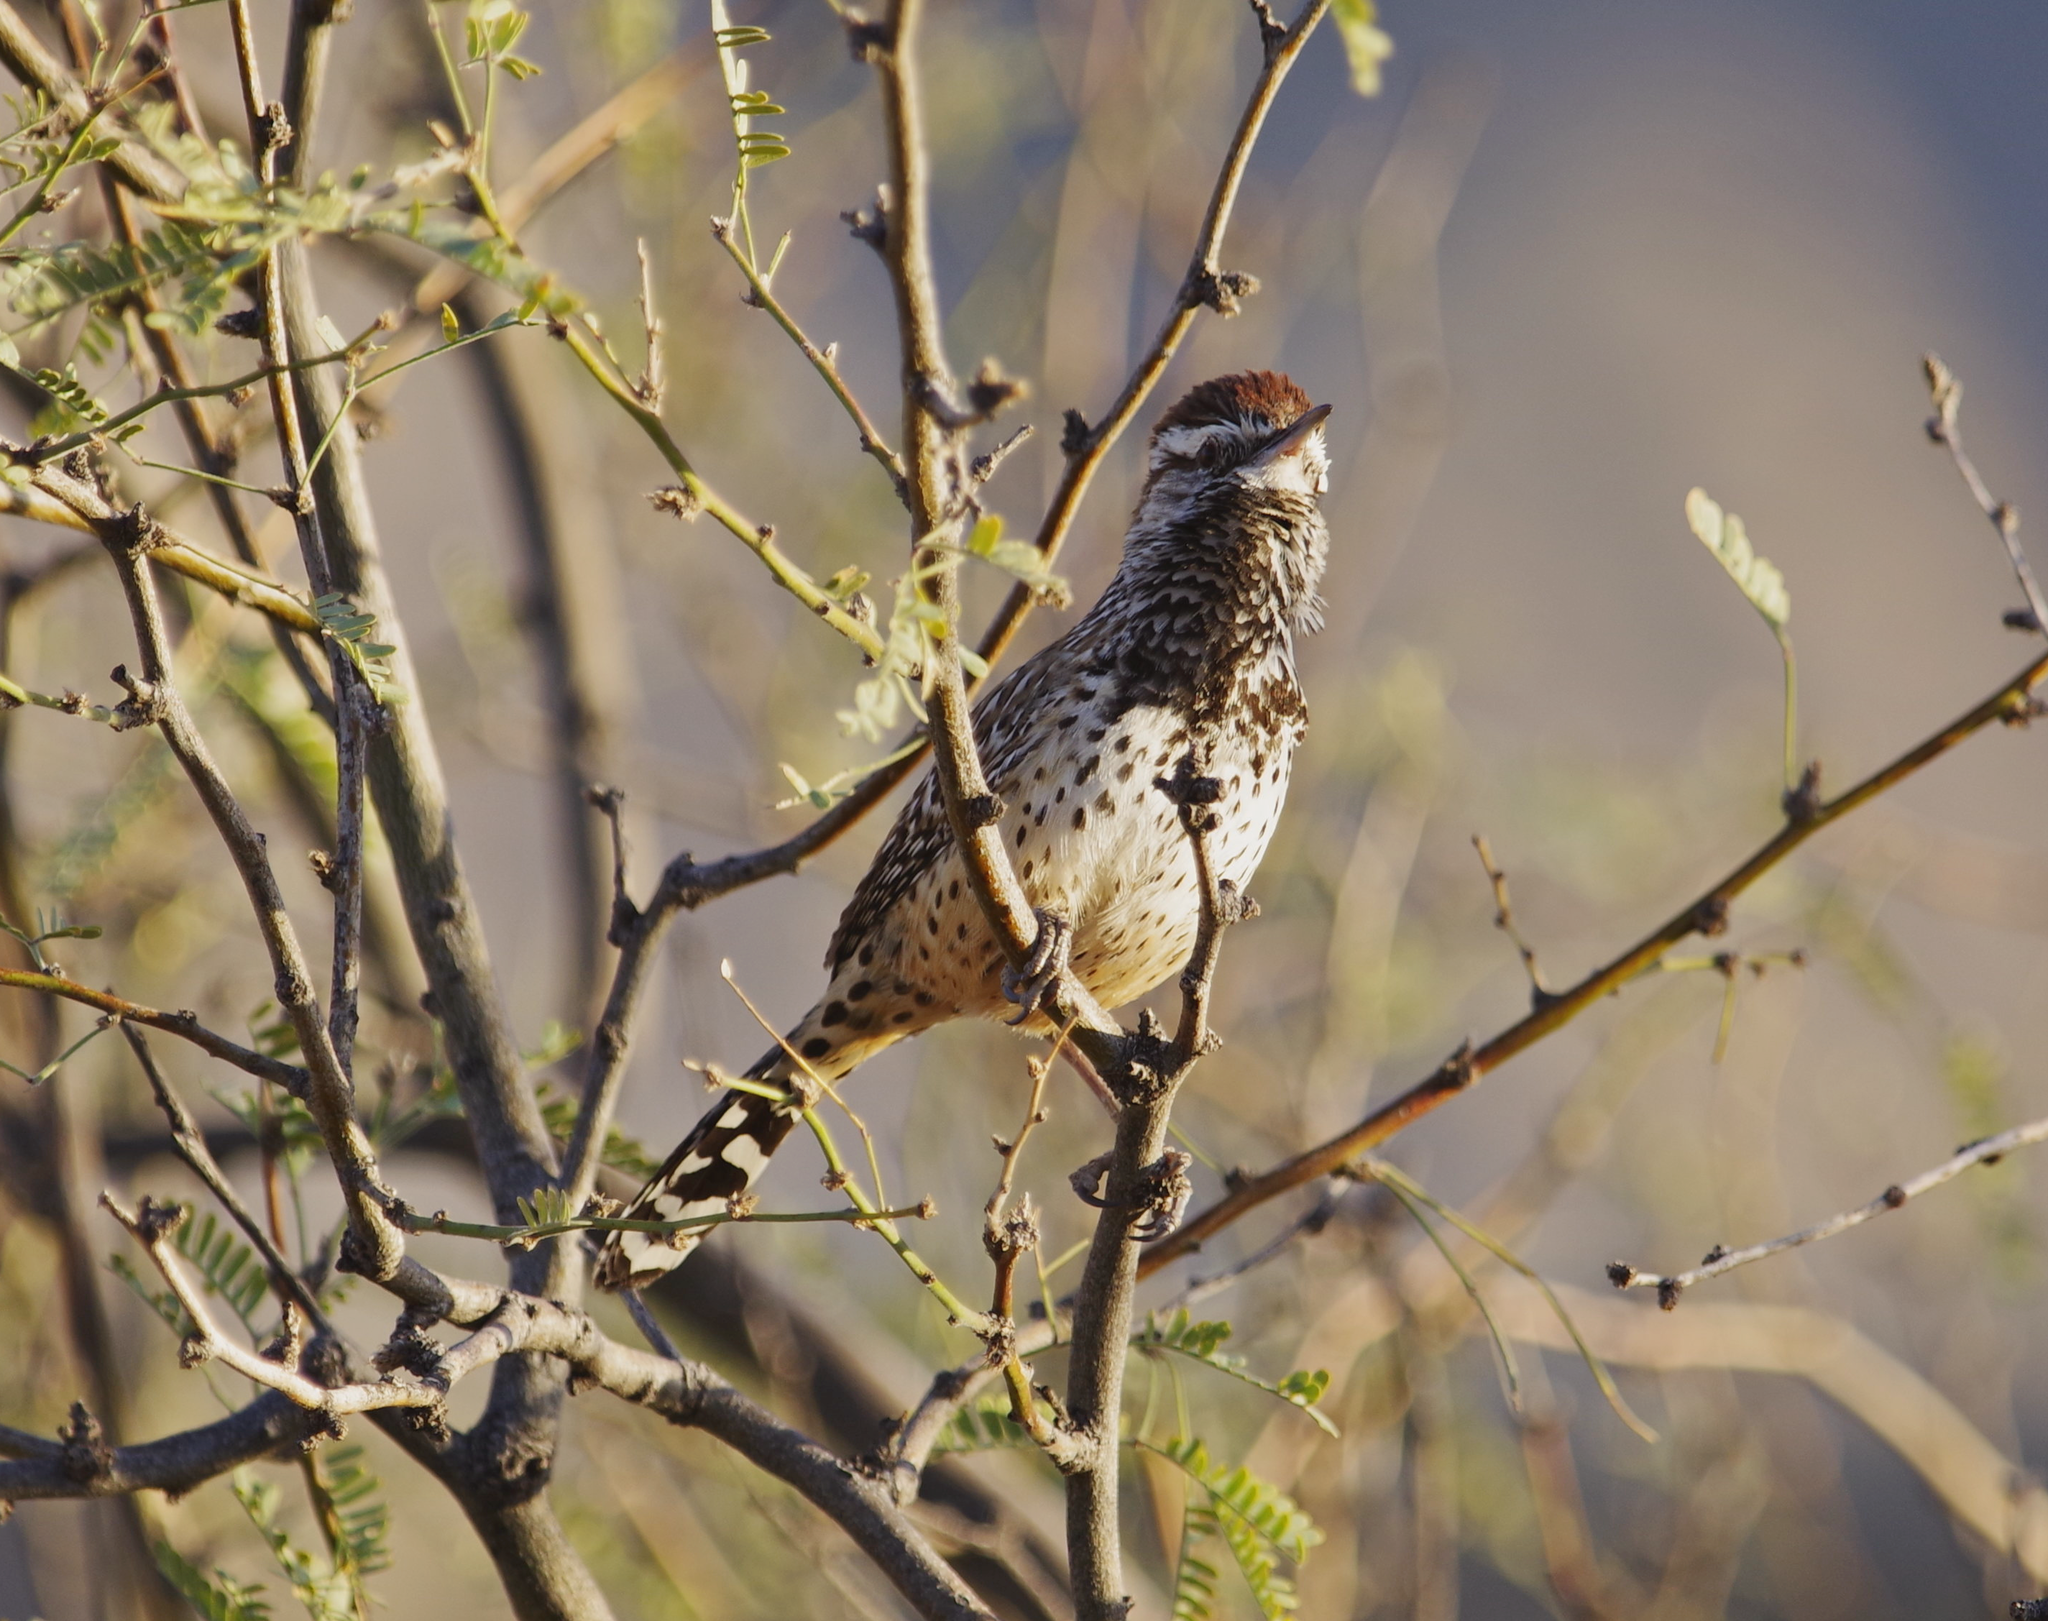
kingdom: Animalia
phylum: Chordata
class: Aves
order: Passeriformes
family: Troglodytidae
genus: Campylorhynchus
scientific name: Campylorhynchus brunneicapillus
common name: Cactus wren
